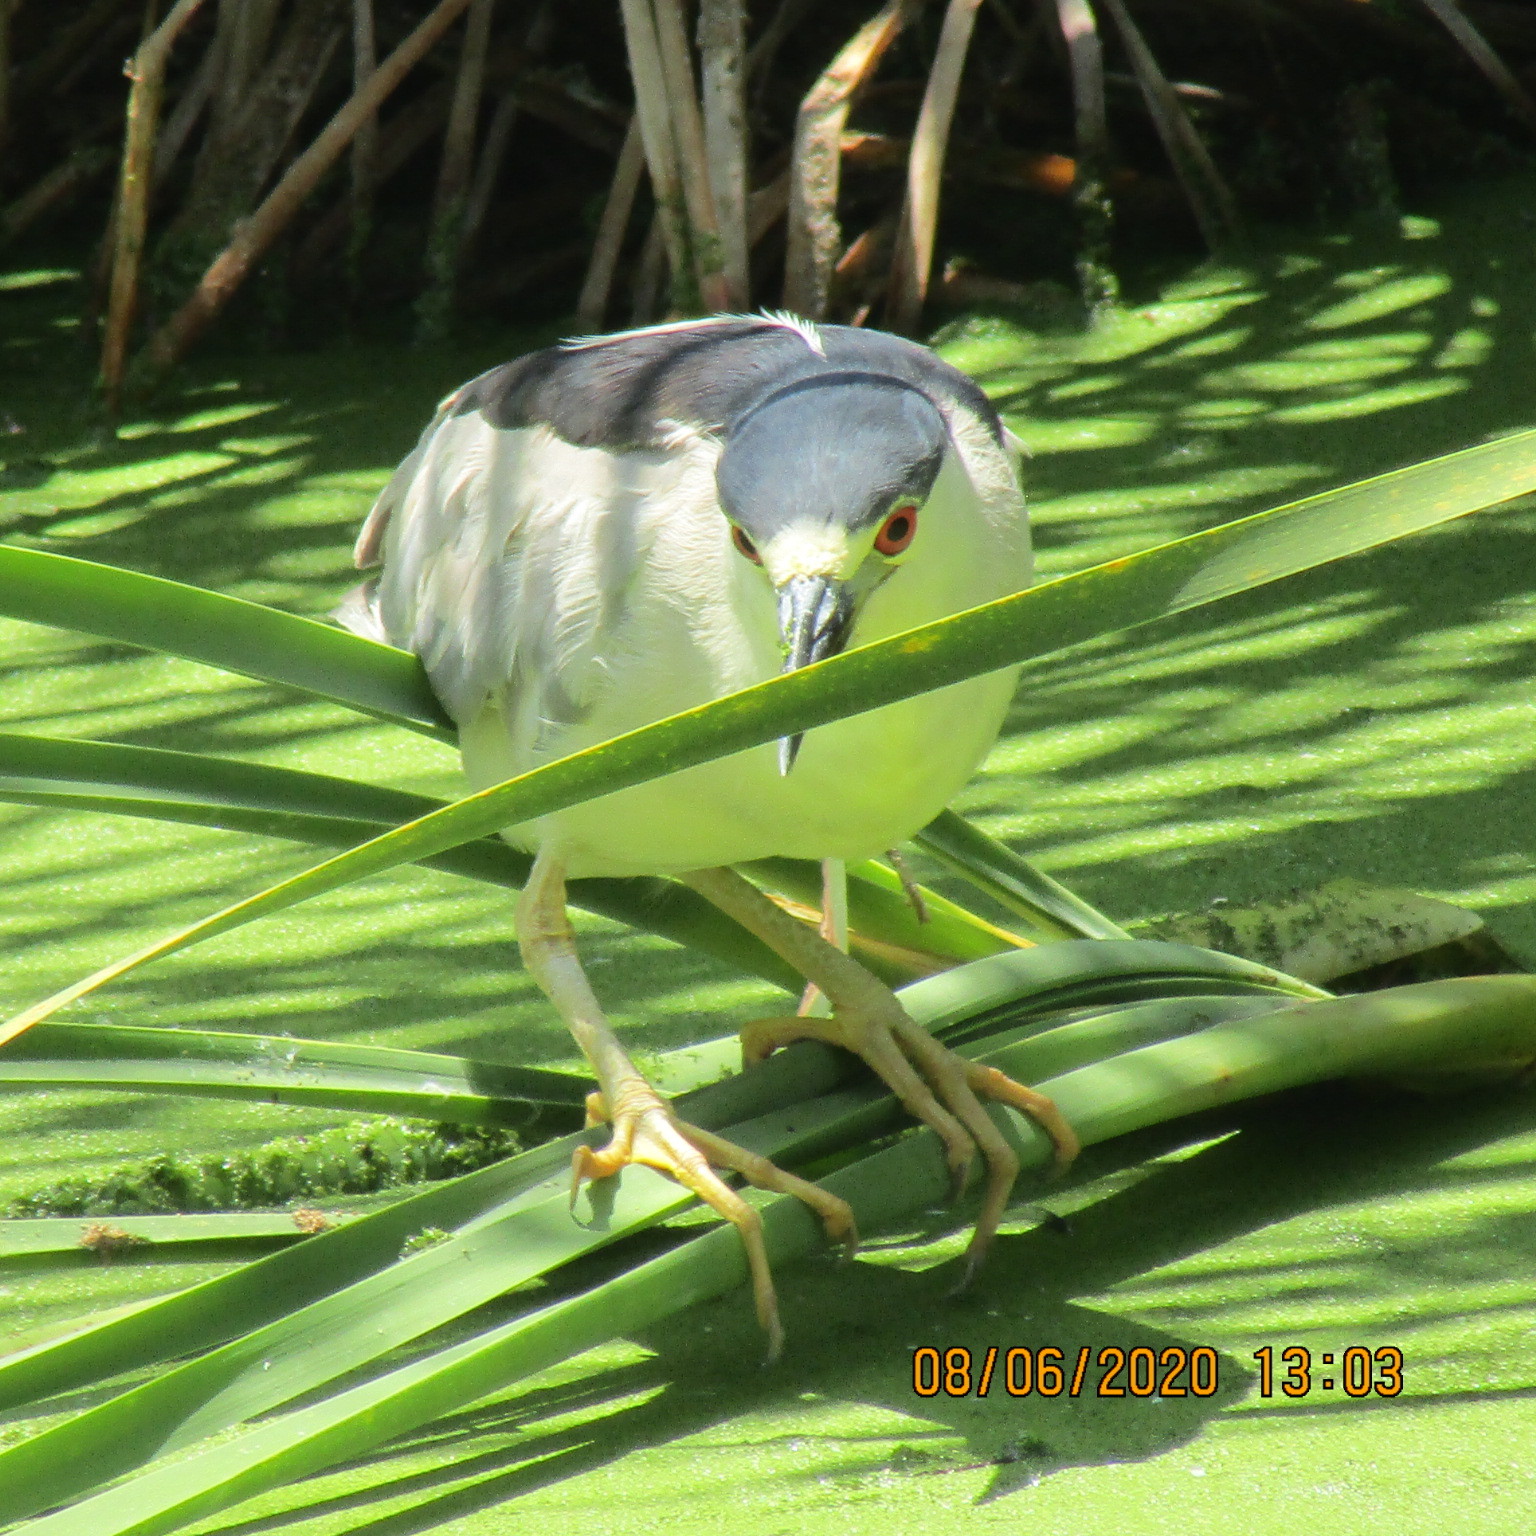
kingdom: Animalia
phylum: Chordata
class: Aves
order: Pelecaniformes
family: Ardeidae
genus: Nycticorax
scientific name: Nycticorax nycticorax
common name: Black-crowned night heron
